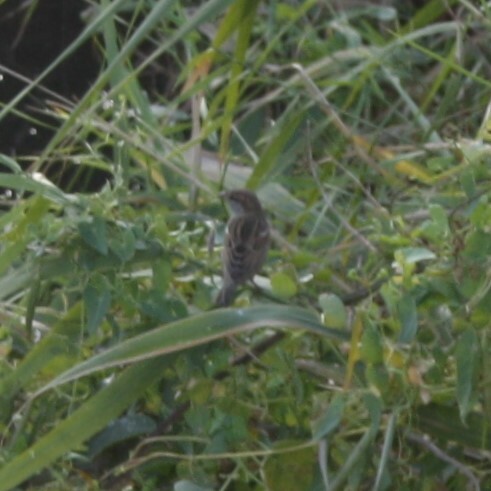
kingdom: Animalia
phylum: Chordata
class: Aves
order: Passeriformes
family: Passeridae
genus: Passer
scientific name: Passer domesticus
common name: House sparrow
